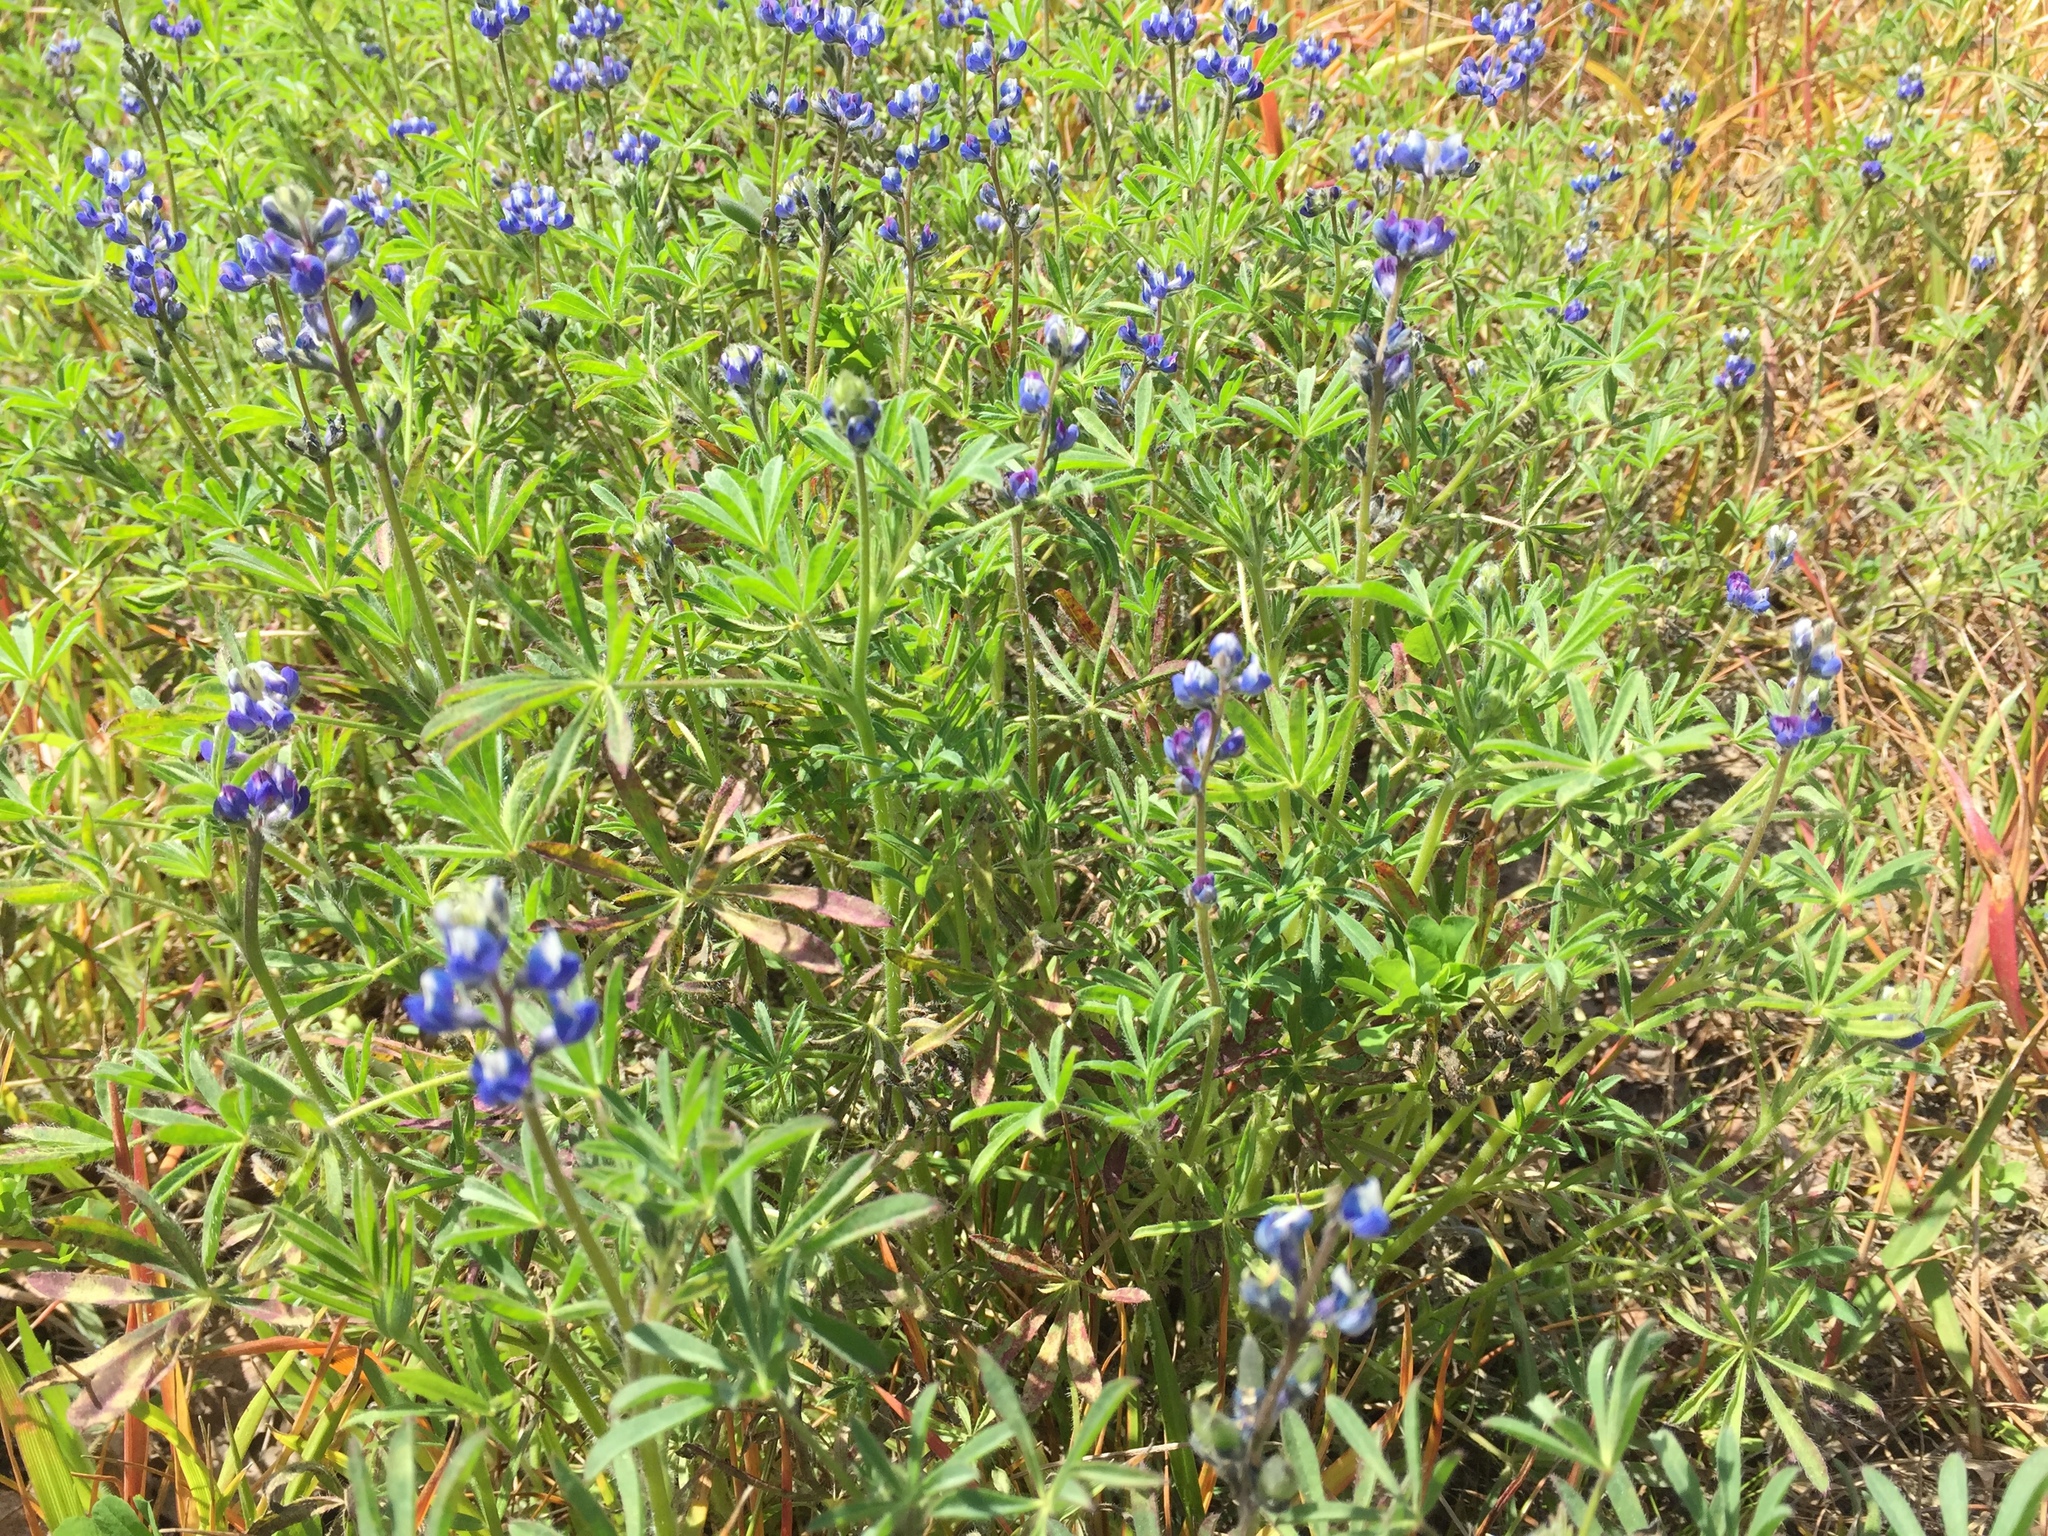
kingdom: Plantae
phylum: Tracheophyta
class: Magnoliopsida
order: Fabales
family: Fabaceae
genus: Lupinus
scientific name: Lupinus bicolor
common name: Miniature lupine
